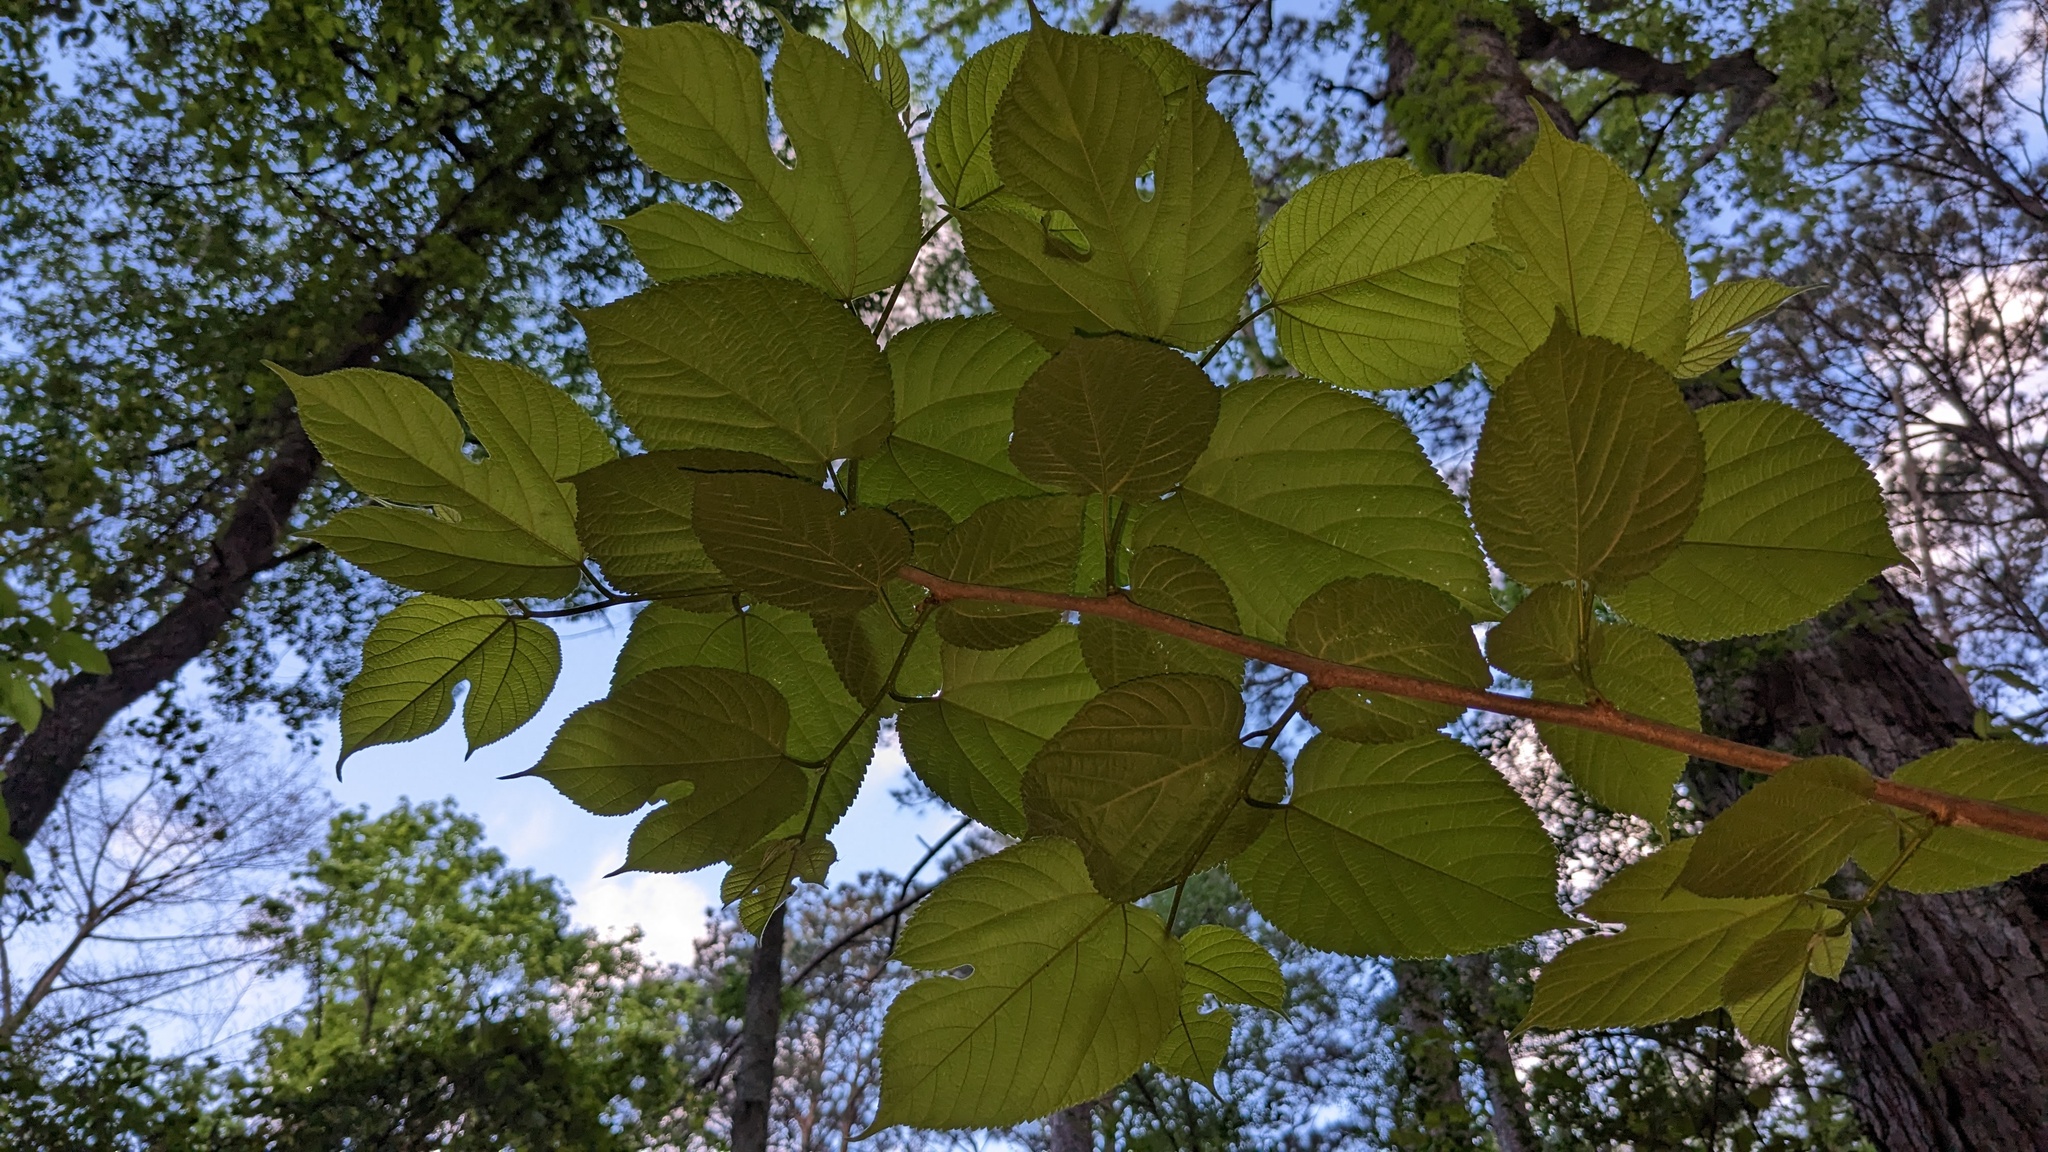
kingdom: Plantae
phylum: Tracheophyta
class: Magnoliopsida
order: Rosales
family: Moraceae
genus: Morus
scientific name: Morus rubra
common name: Red mulberry
